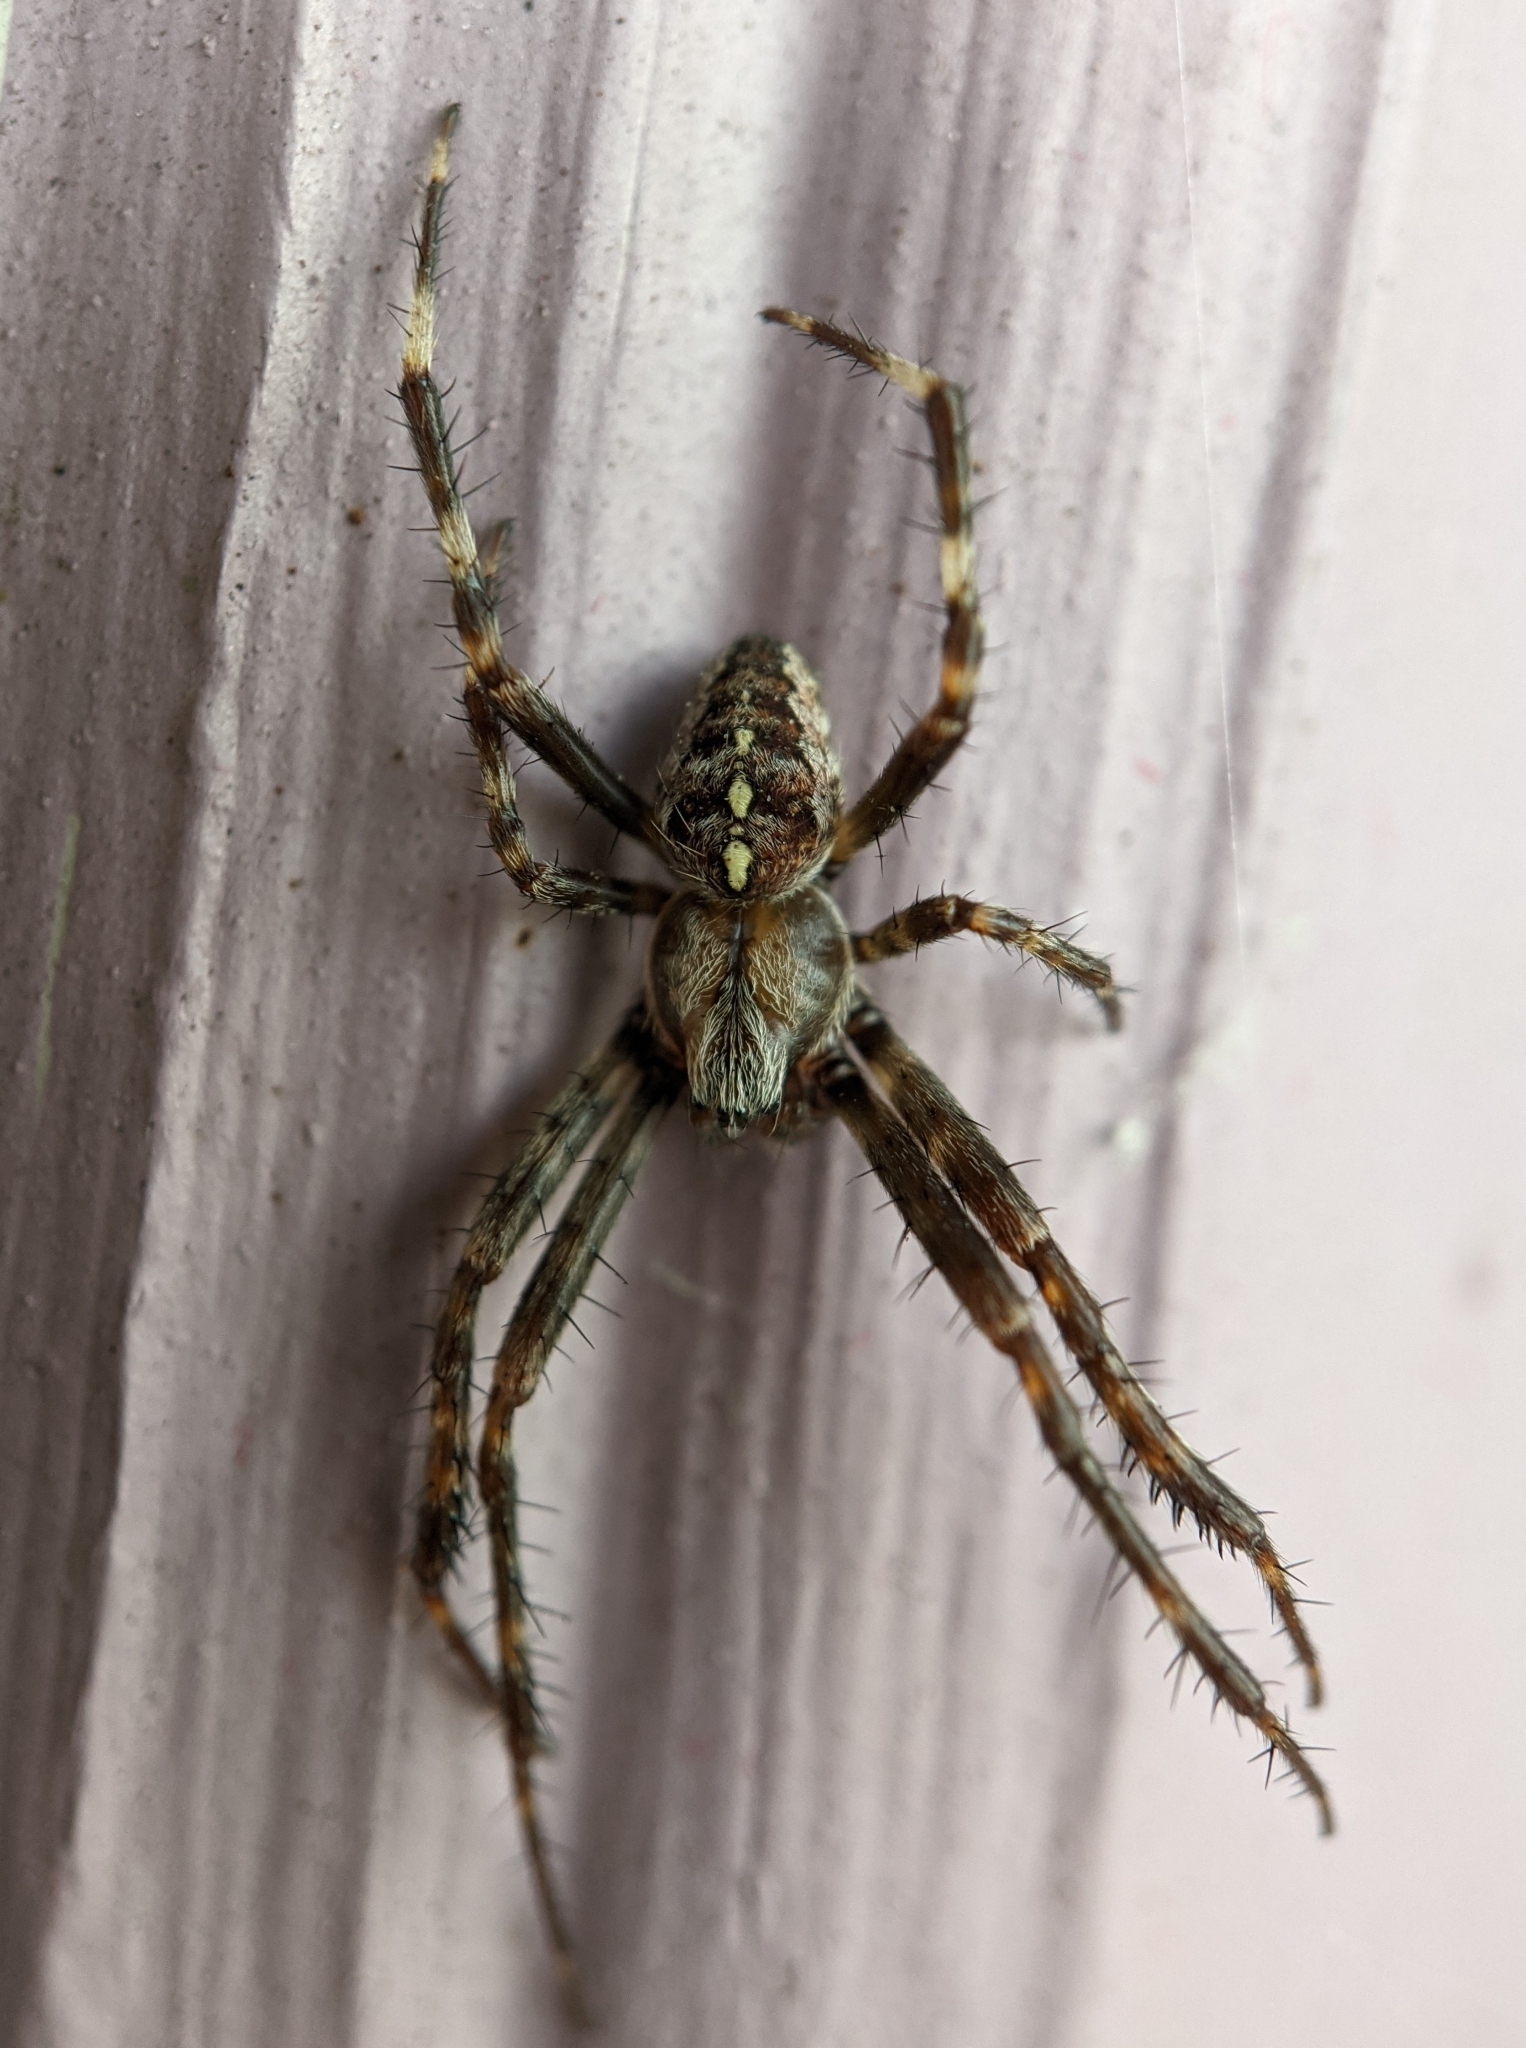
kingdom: Animalia
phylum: Arthropoda
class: Arachnida
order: Araneae
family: Araneidae
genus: Araneus
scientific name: Araneus diadematus
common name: Cross orbweaver
